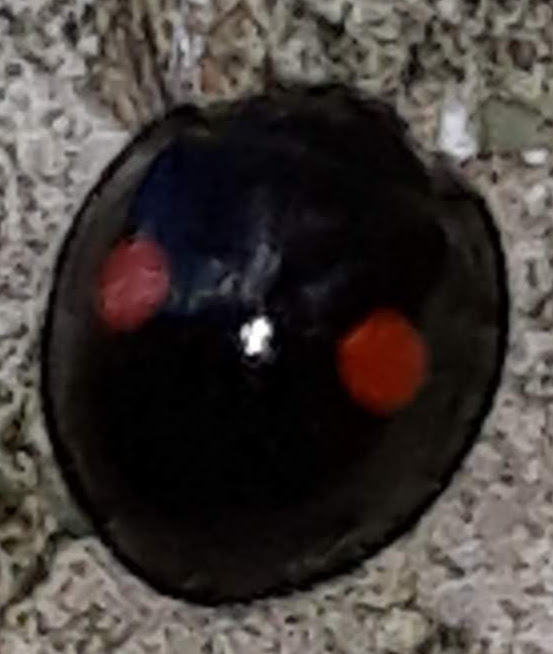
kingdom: Animalia
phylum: Arthropoda
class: Insecta
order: Coleoptera
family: Coccinellidae
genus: Chilocorus
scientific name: Chilocorus stigma
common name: Twicestabbed lady beetle
